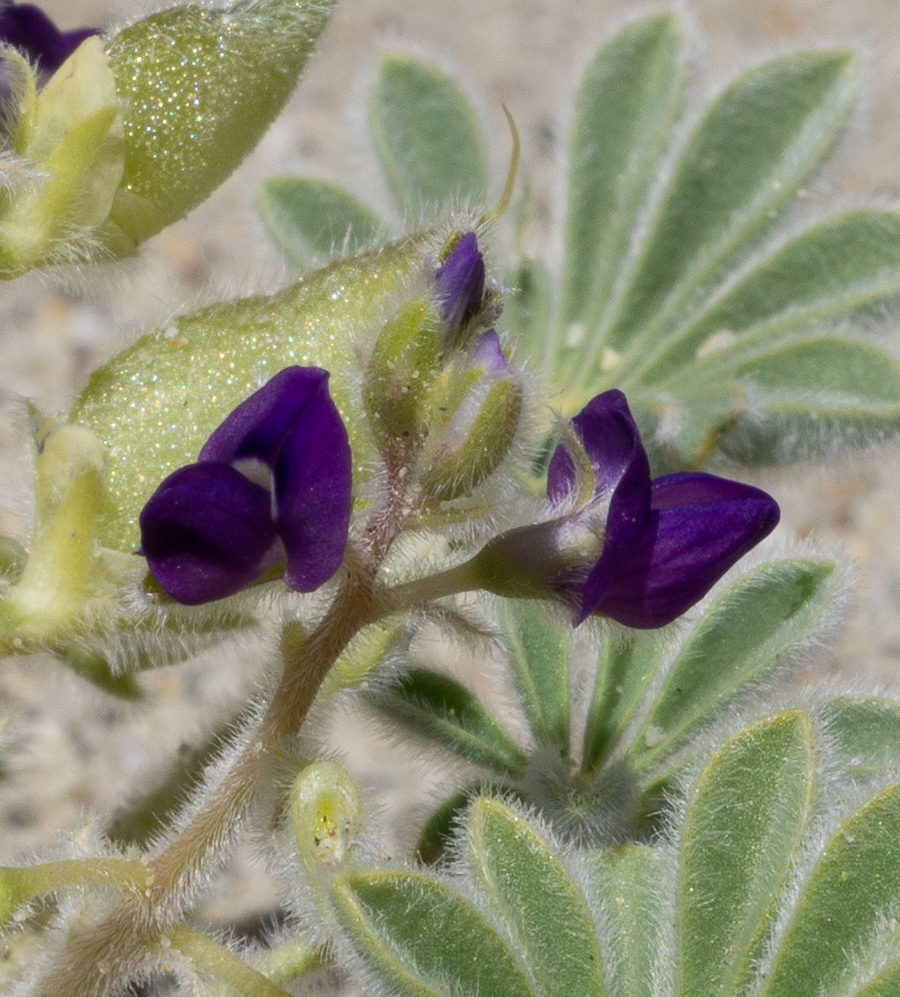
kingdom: Plantae
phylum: Tracheophyta
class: Magnoliopsida
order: Fabales
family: Fabaceae
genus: Lupinus
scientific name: Lupinus shockleyi
